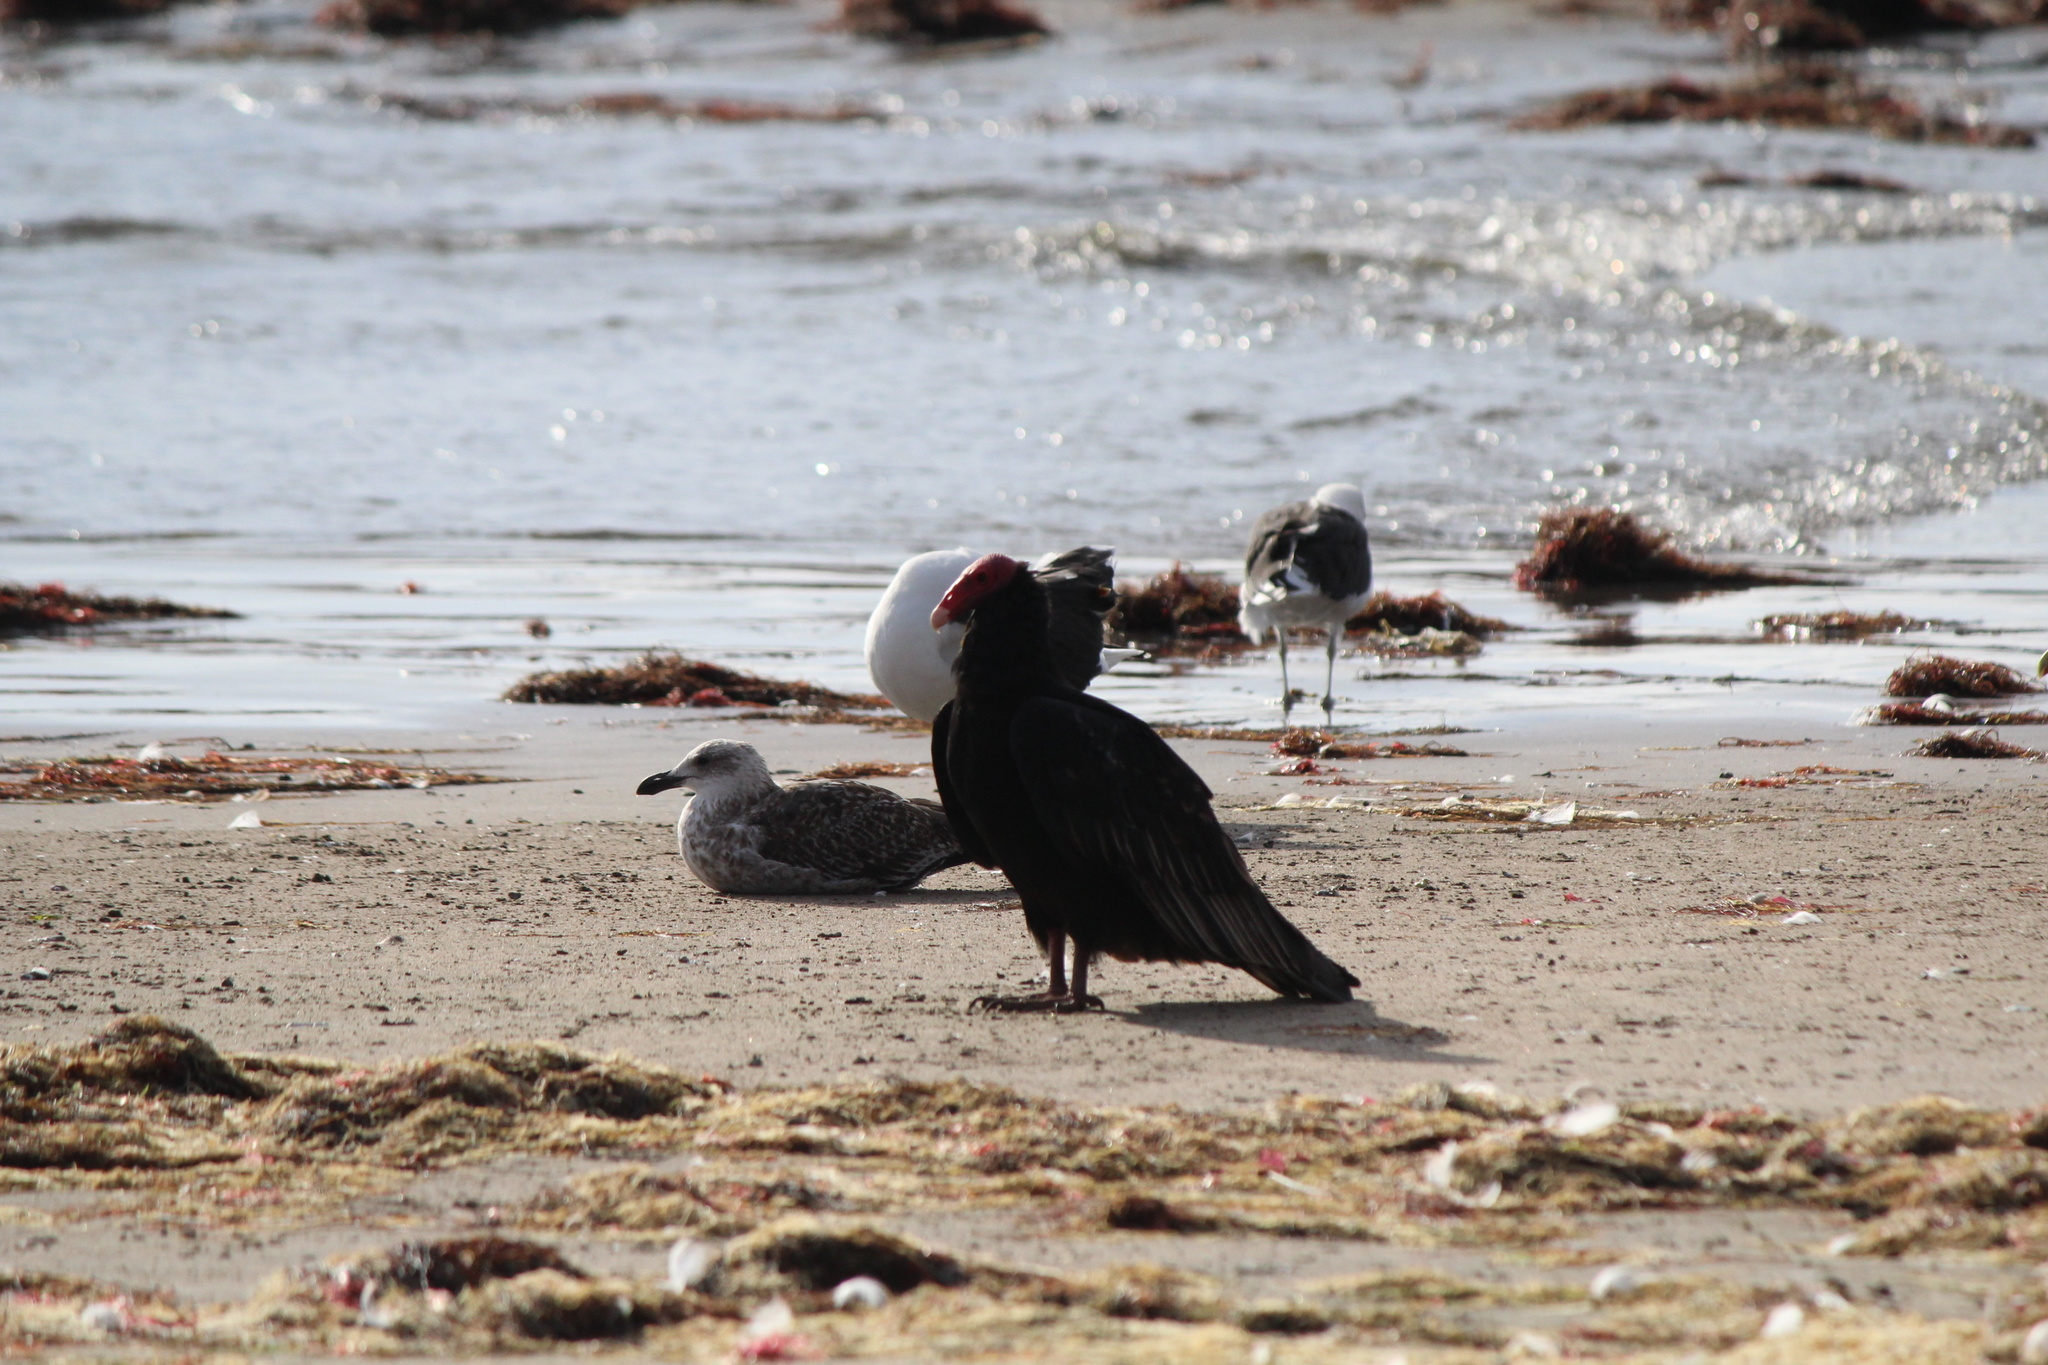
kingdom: Animalia
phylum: Chordata
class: Aves
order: Accipitriformes
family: Cathartidae
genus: Cathartes
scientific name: Cathartes aura
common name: Turkey vulture
